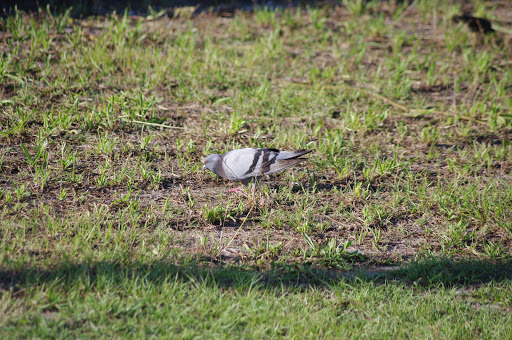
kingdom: Animalia
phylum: Chordata
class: Aves
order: Columbiformes
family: Columbidae
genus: Columba
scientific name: Columba livia
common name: Rock pigeon
